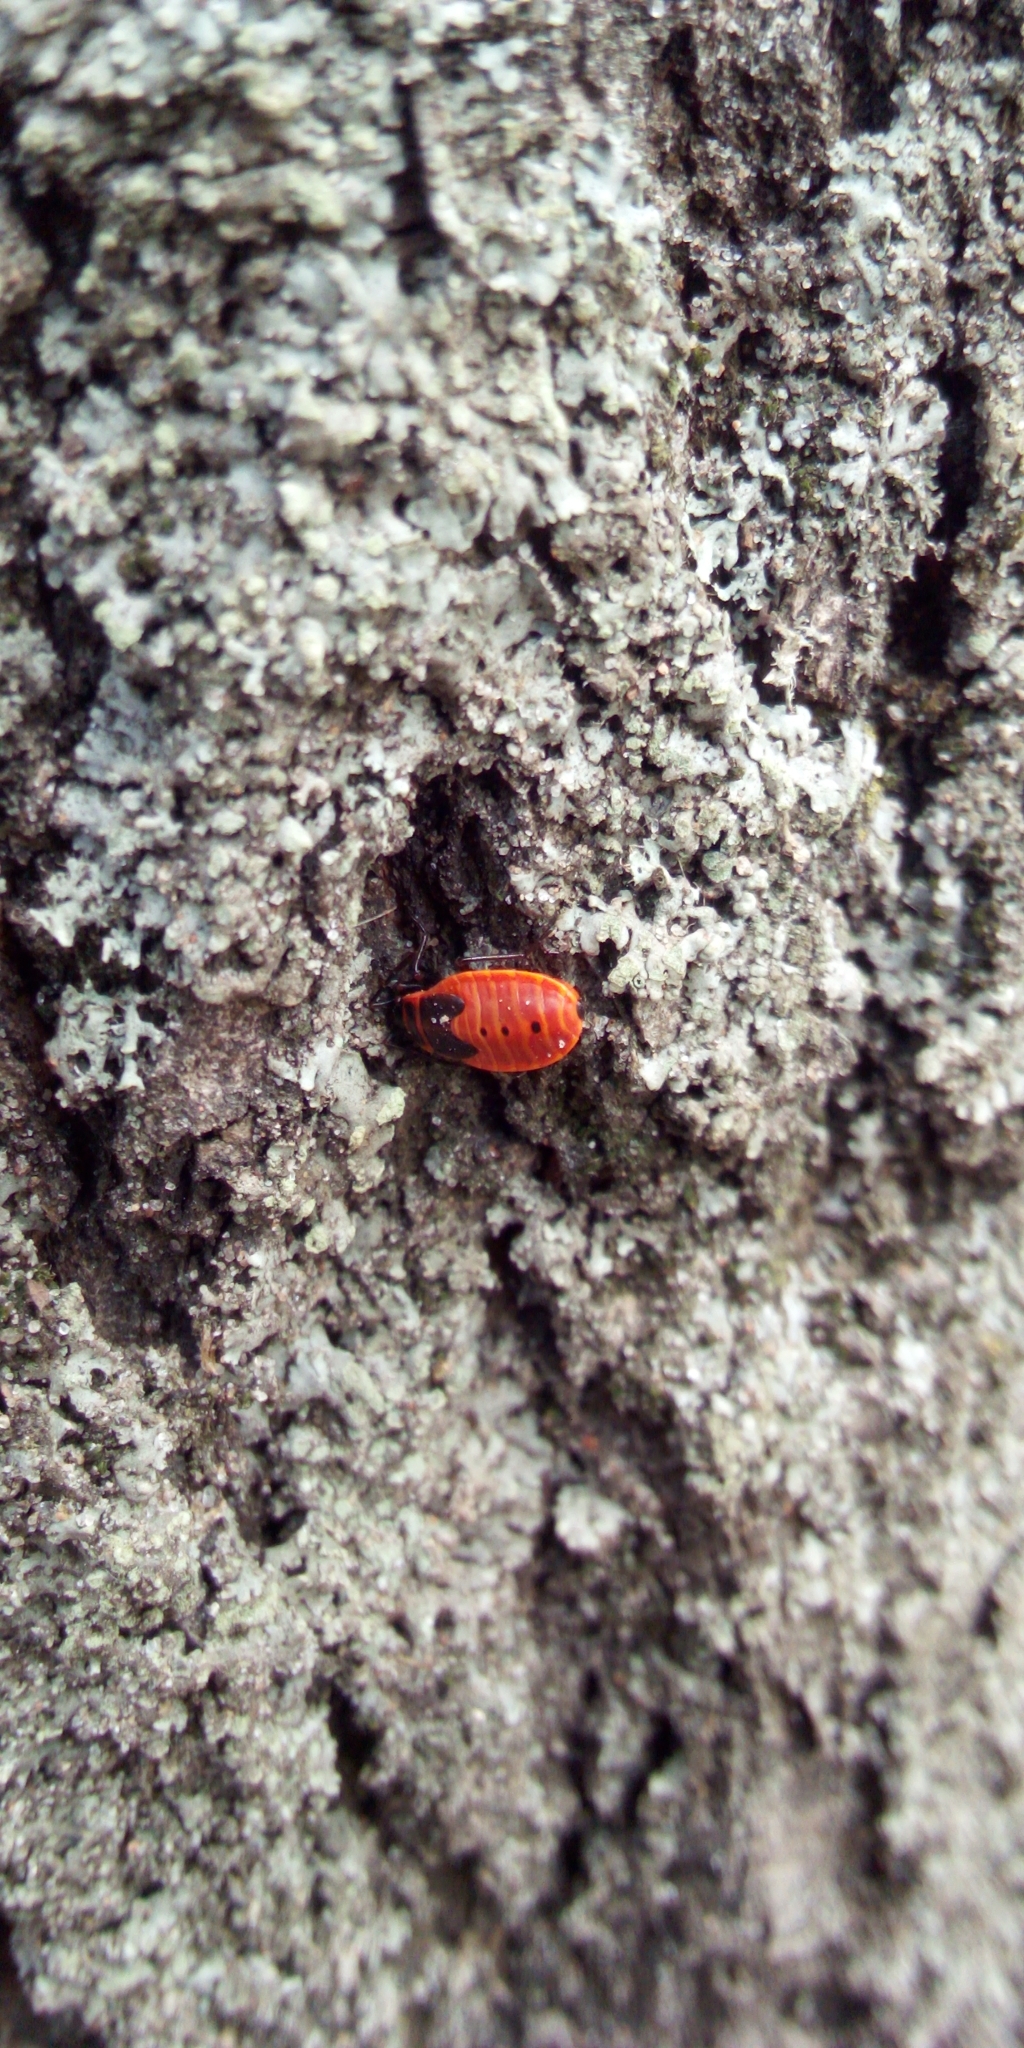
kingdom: Animalia
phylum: Arthropoda
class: Insecta
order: Hemiptera
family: Pyrrhocoridae
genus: Pyrrhocoris
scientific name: Pyrrhocoris apterus
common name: Firebug
